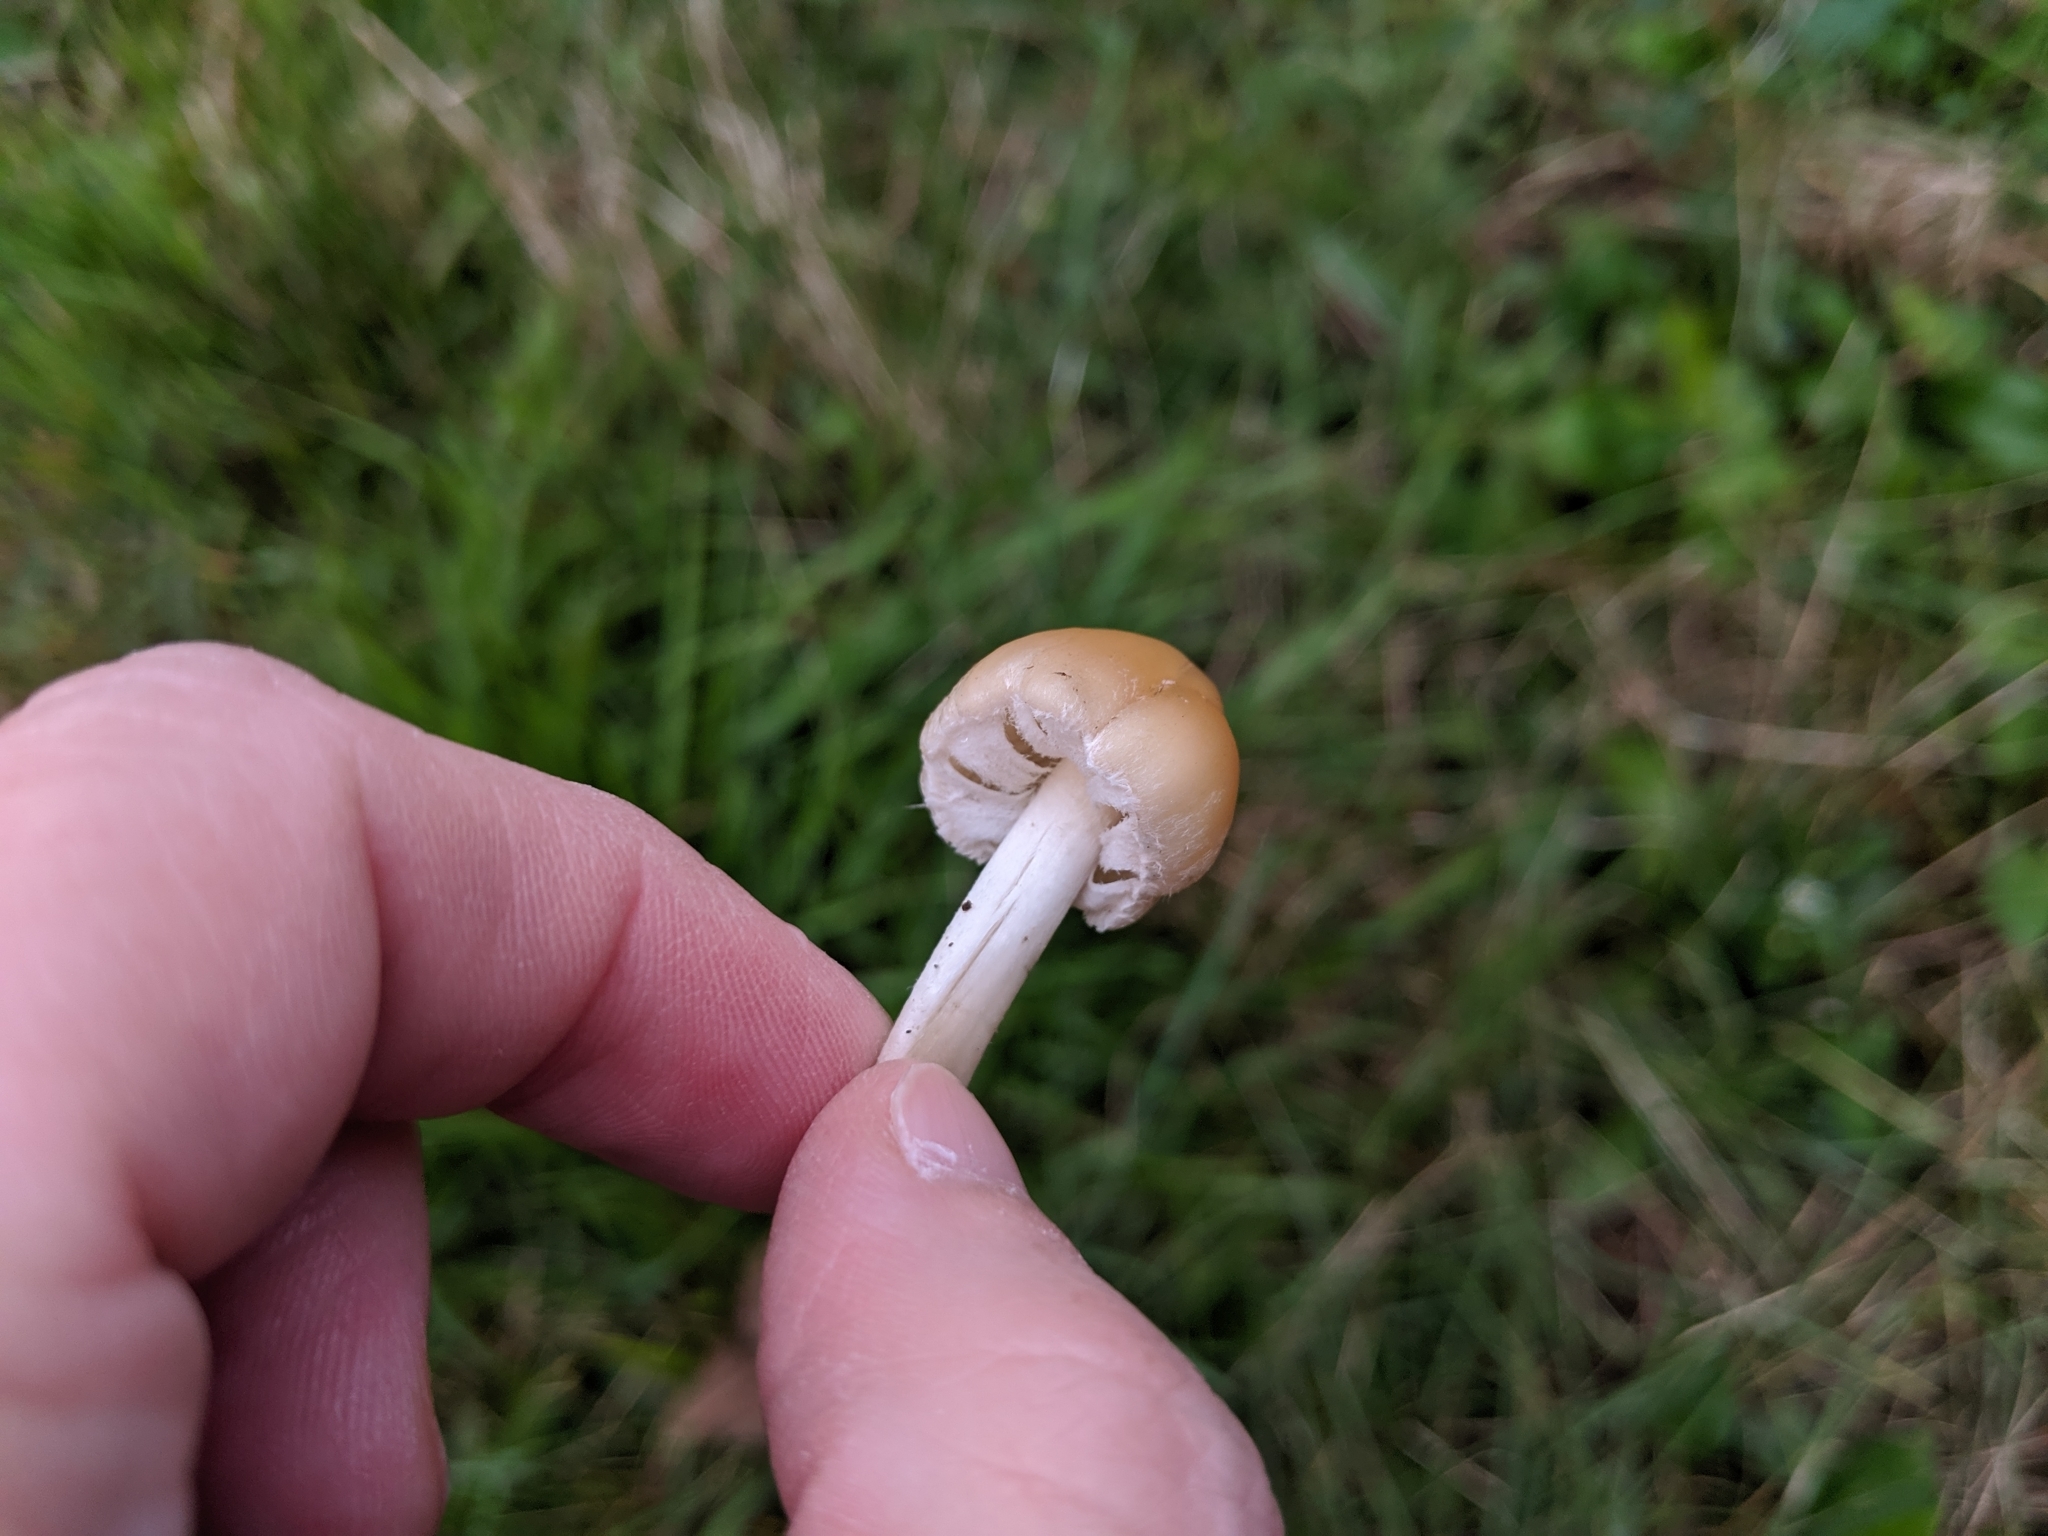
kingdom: Fungi
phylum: Basidiomycota
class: Agaricomycetes
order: Agaricales
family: Psathyrellaceae
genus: Candolleomyces
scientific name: Candolleomyces candolleanus
